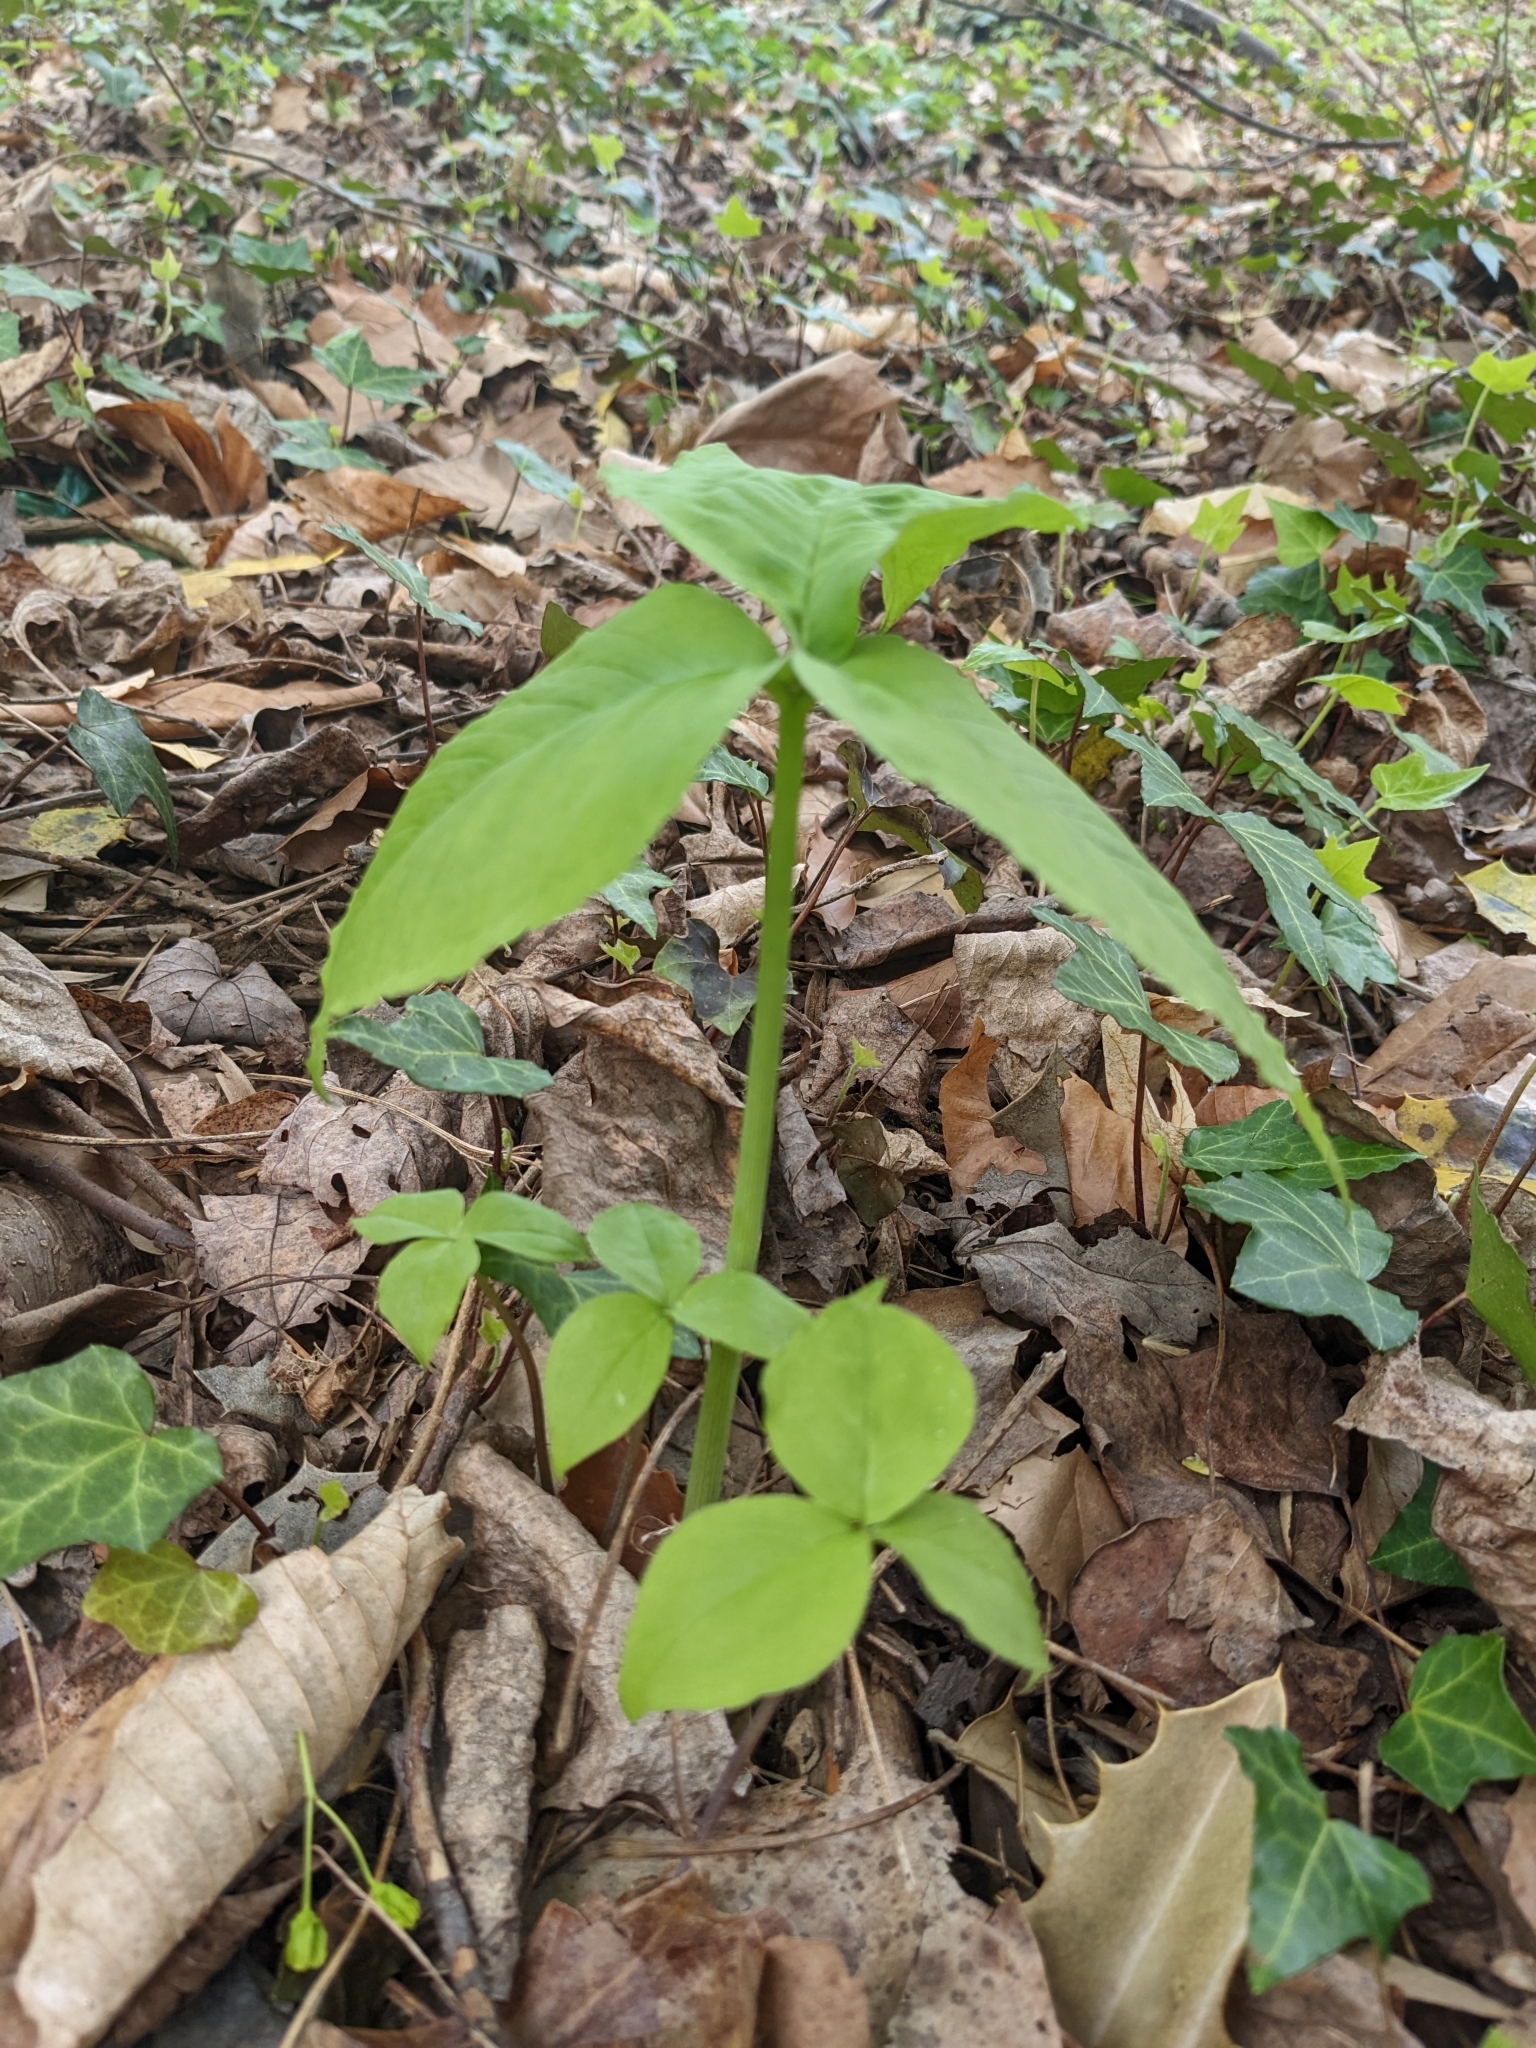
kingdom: Plantae
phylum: Tracheophyta
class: Liliopsida
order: Alismatales
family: Araceae
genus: Arisaema
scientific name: Arisaema triphyllum
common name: Jack-in-the-pulpit
